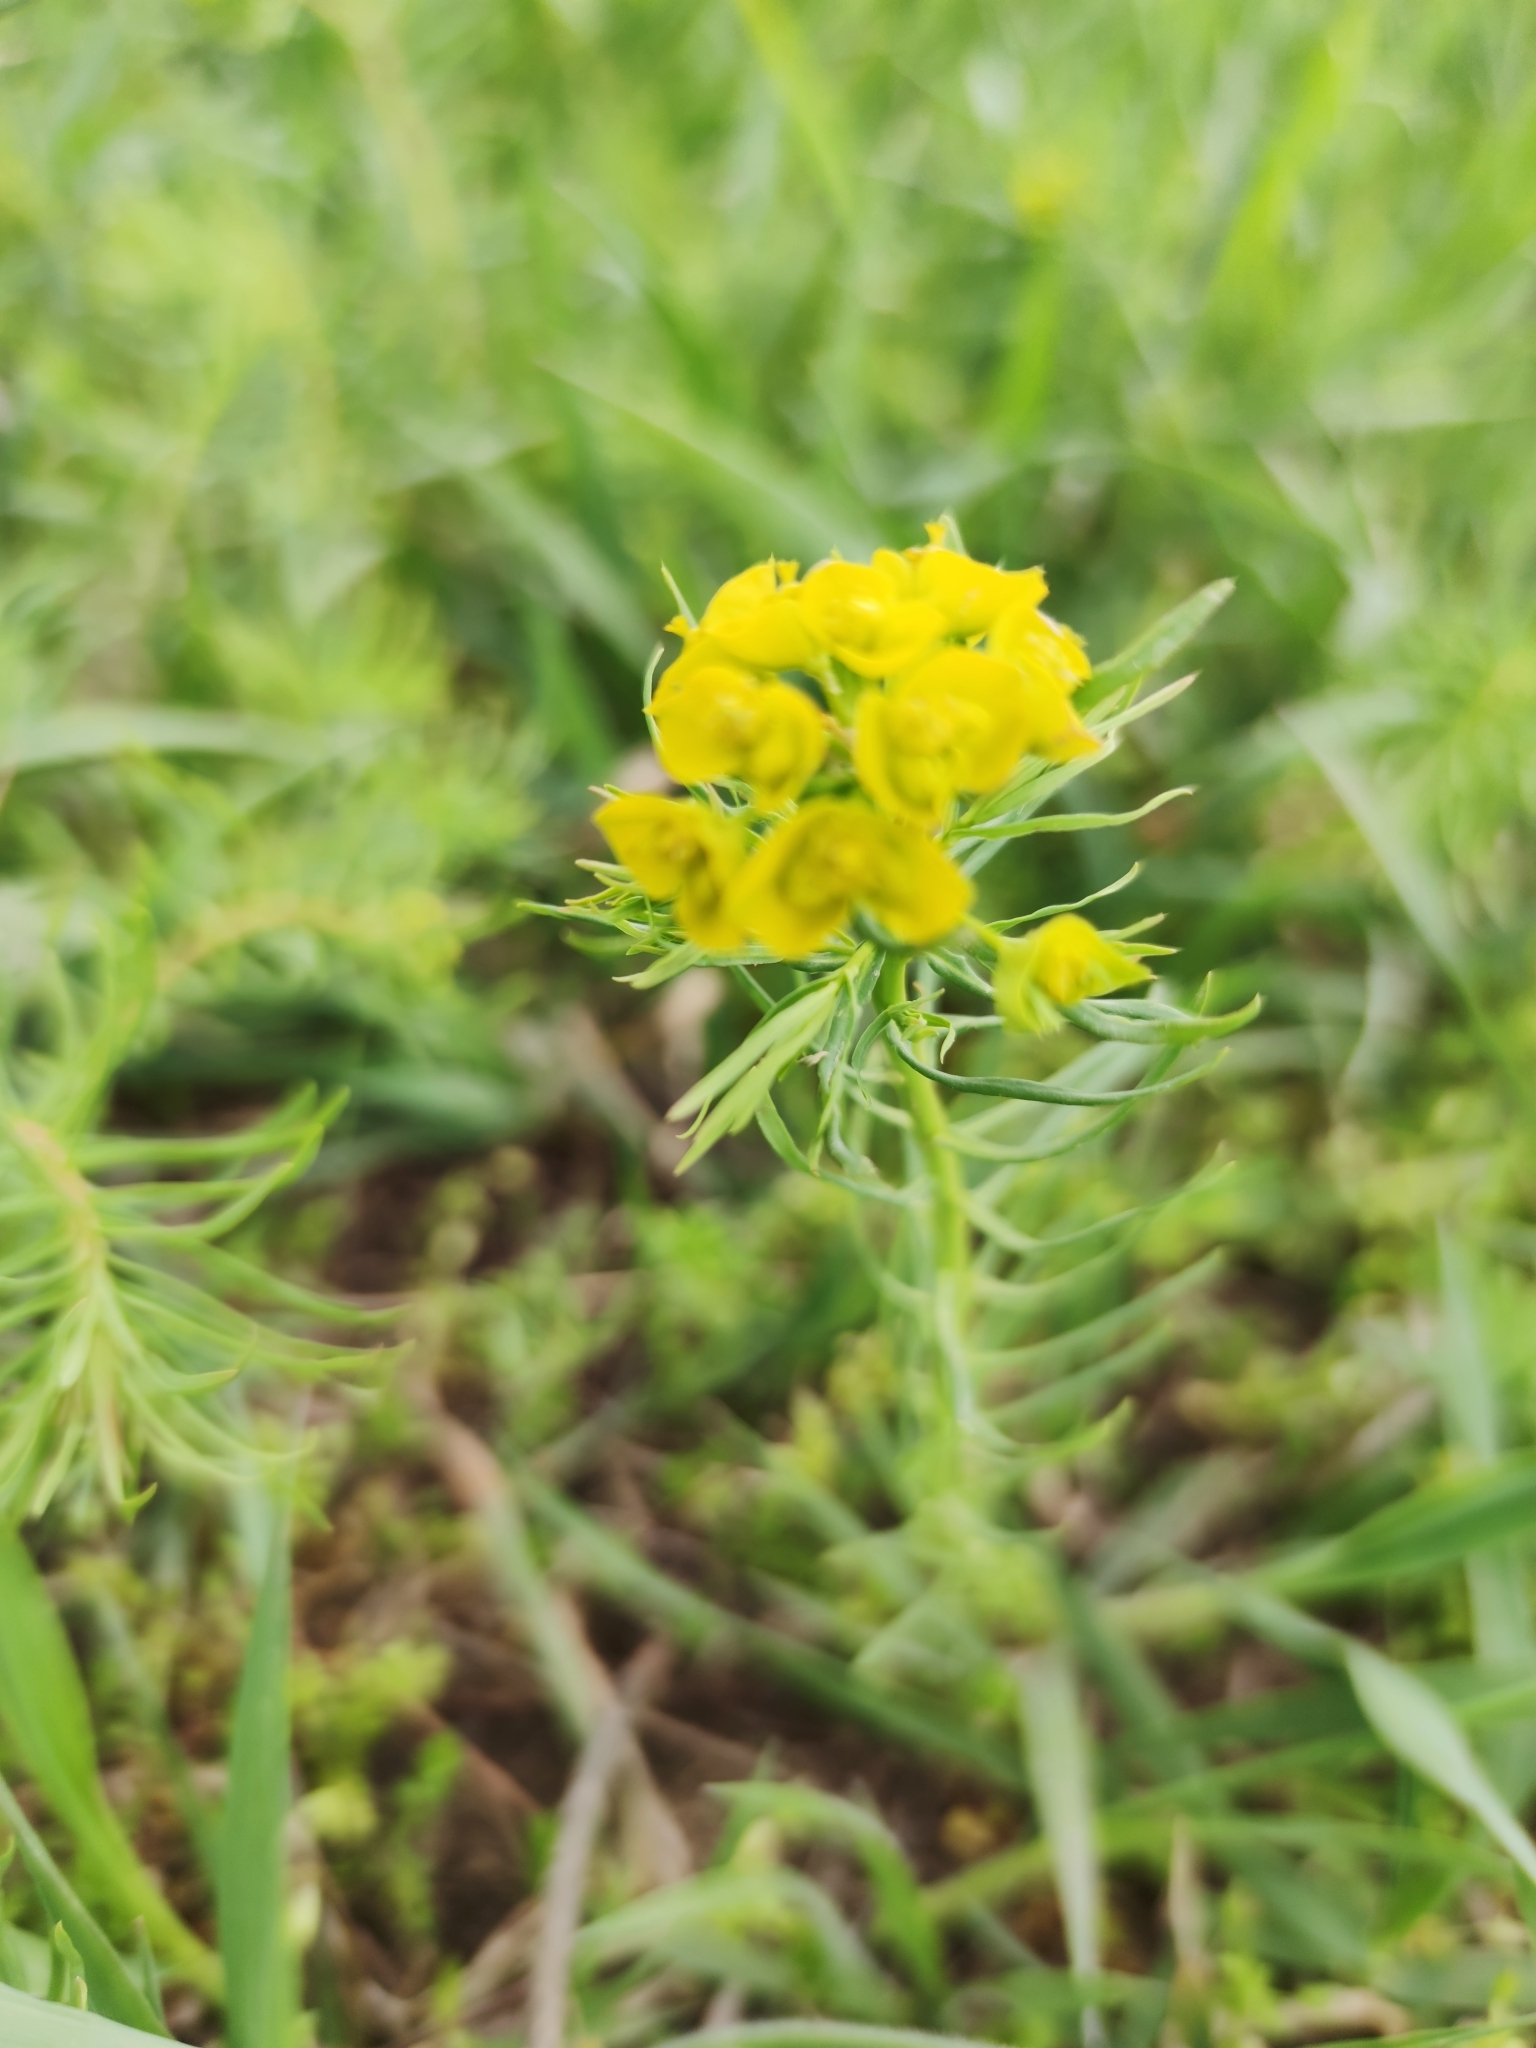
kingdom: Plantae
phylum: Tracheophyta
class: Magnoliopsida
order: Malpighiales
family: Euphorbiaceae
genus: Euphorbia
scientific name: Euphorbia cyparissias
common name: Cypress spurge
